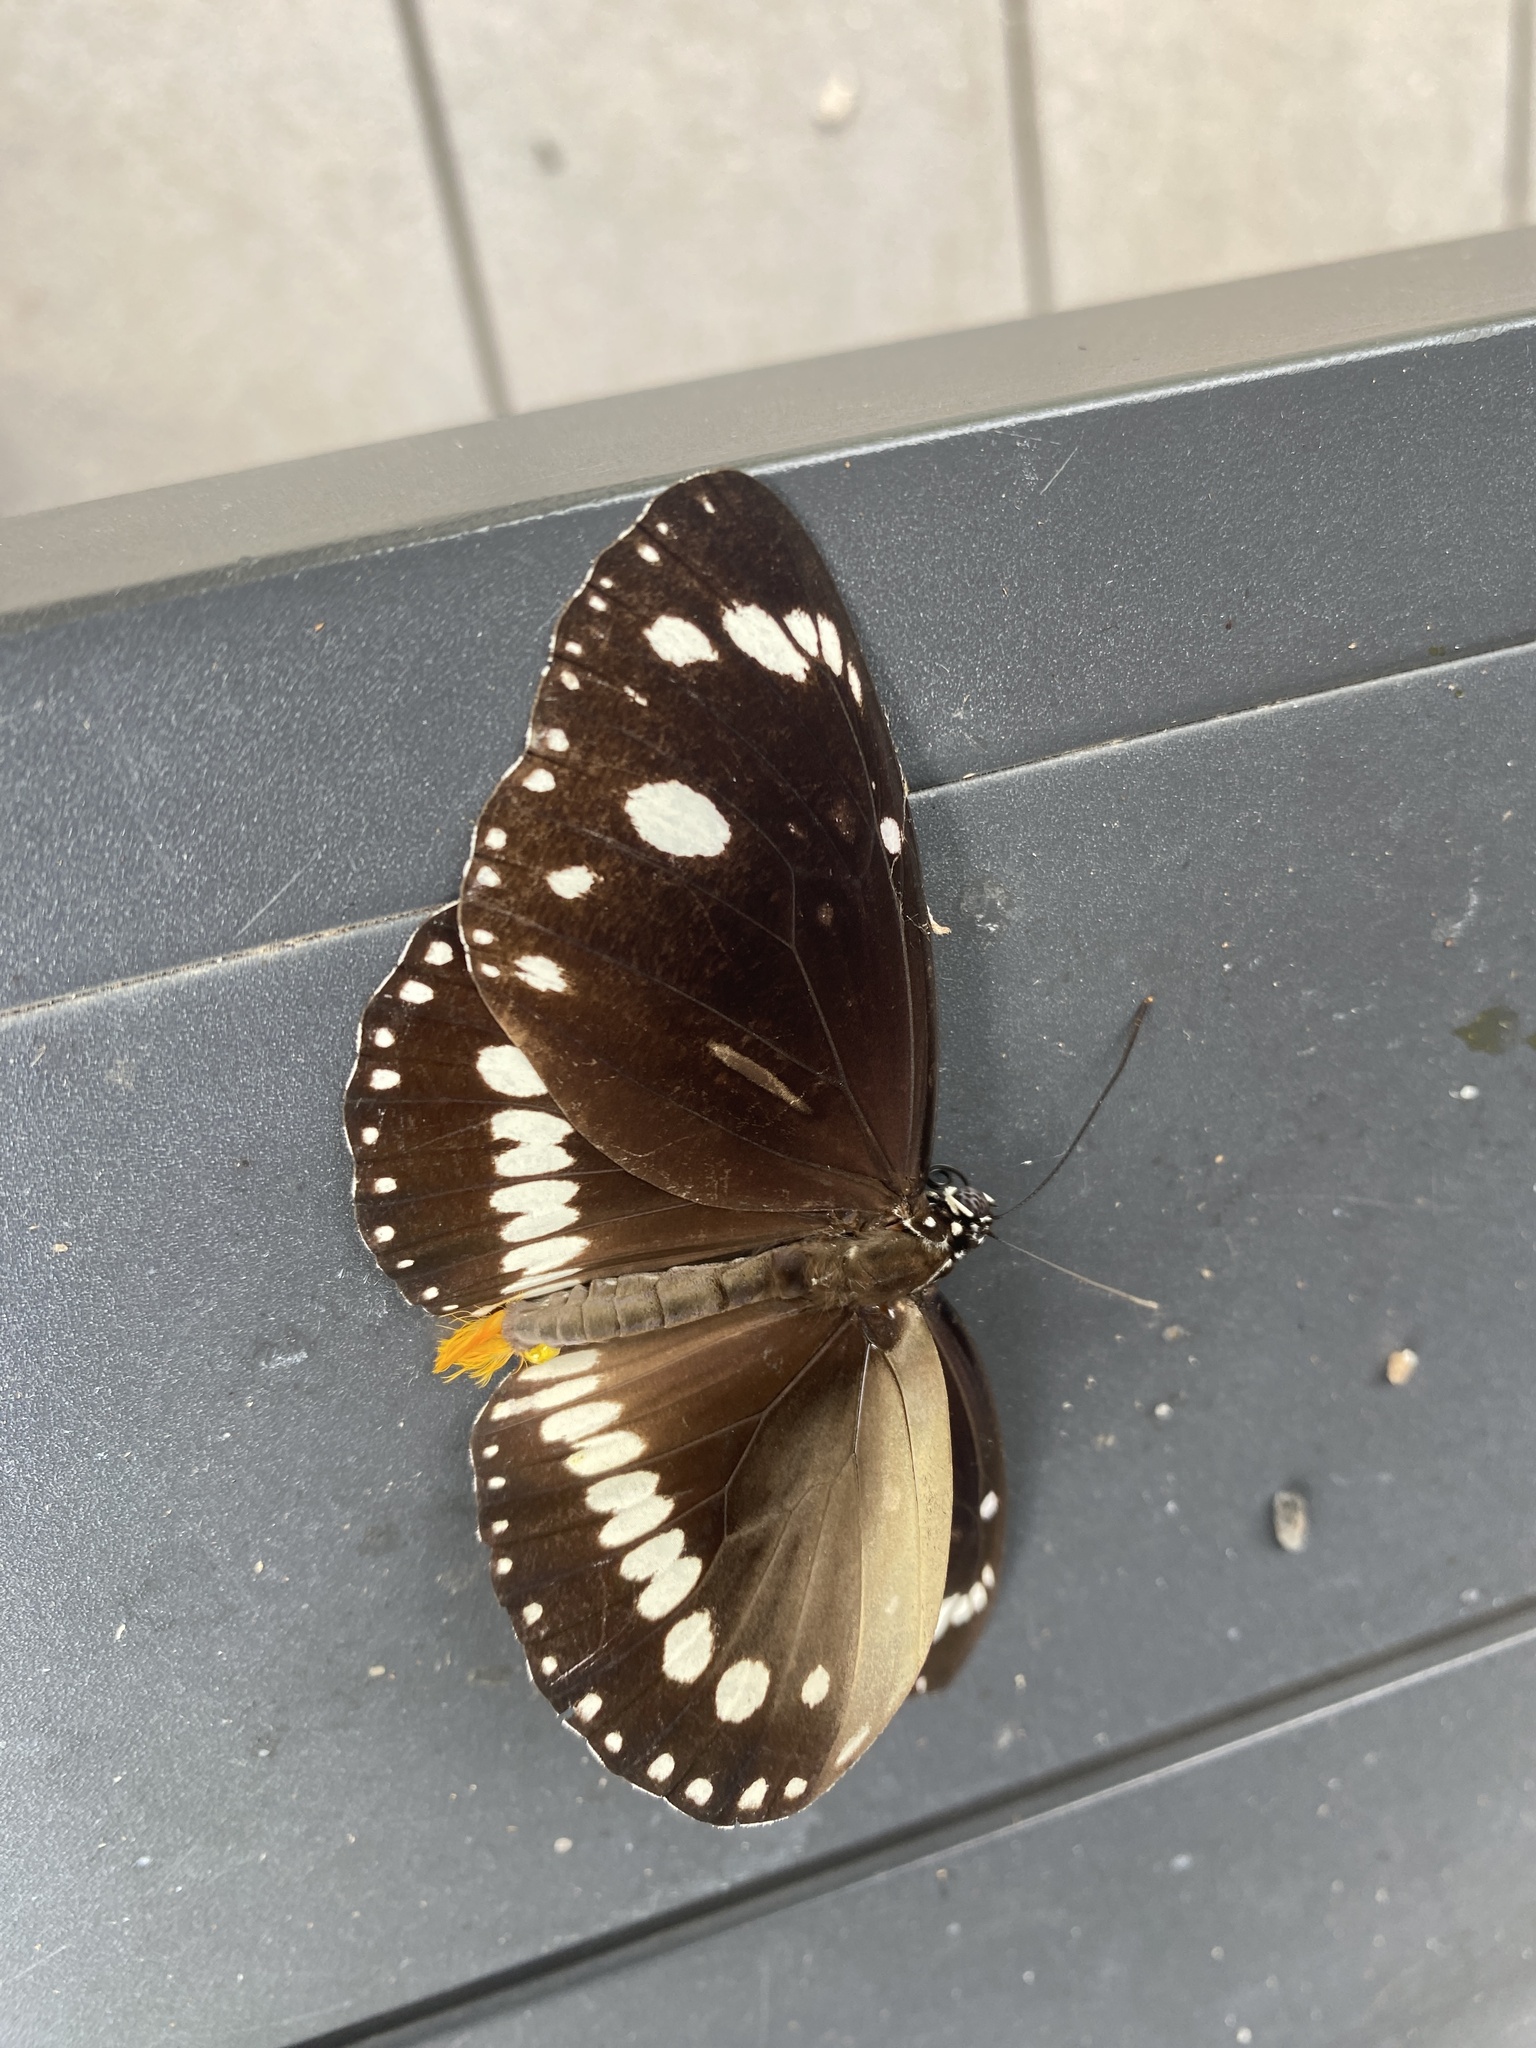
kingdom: Animalia
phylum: Arthropoda
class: Insecta
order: Lepidoptera
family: Nymphalidae
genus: Euploea
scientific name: Euploea core
